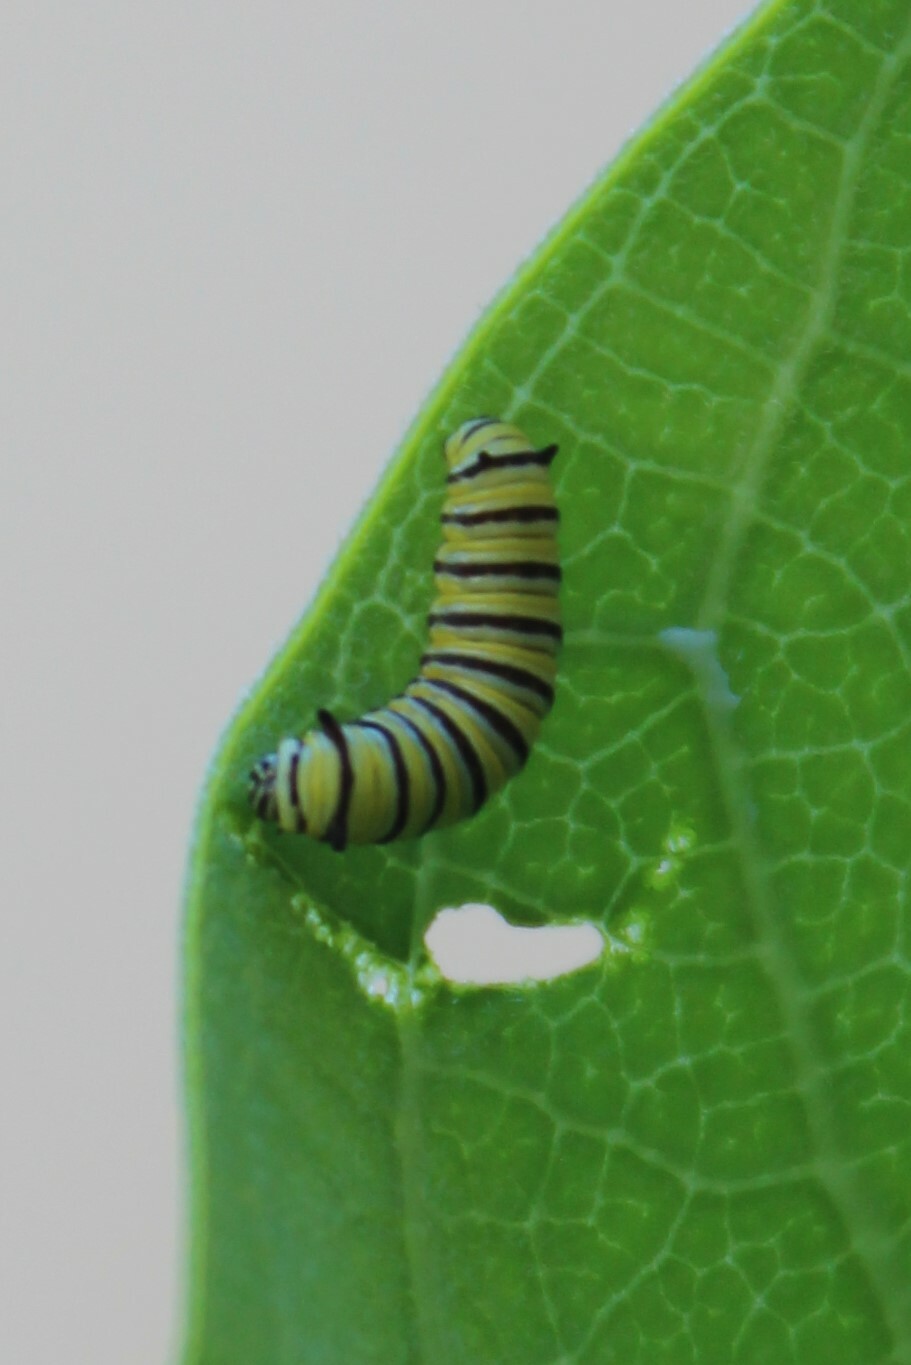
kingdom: Animalia
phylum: Arthropoda
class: Insecta
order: Lepidoptera
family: Nymphalidae
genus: Danaus
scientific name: Danaus plexippus
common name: Monarch
